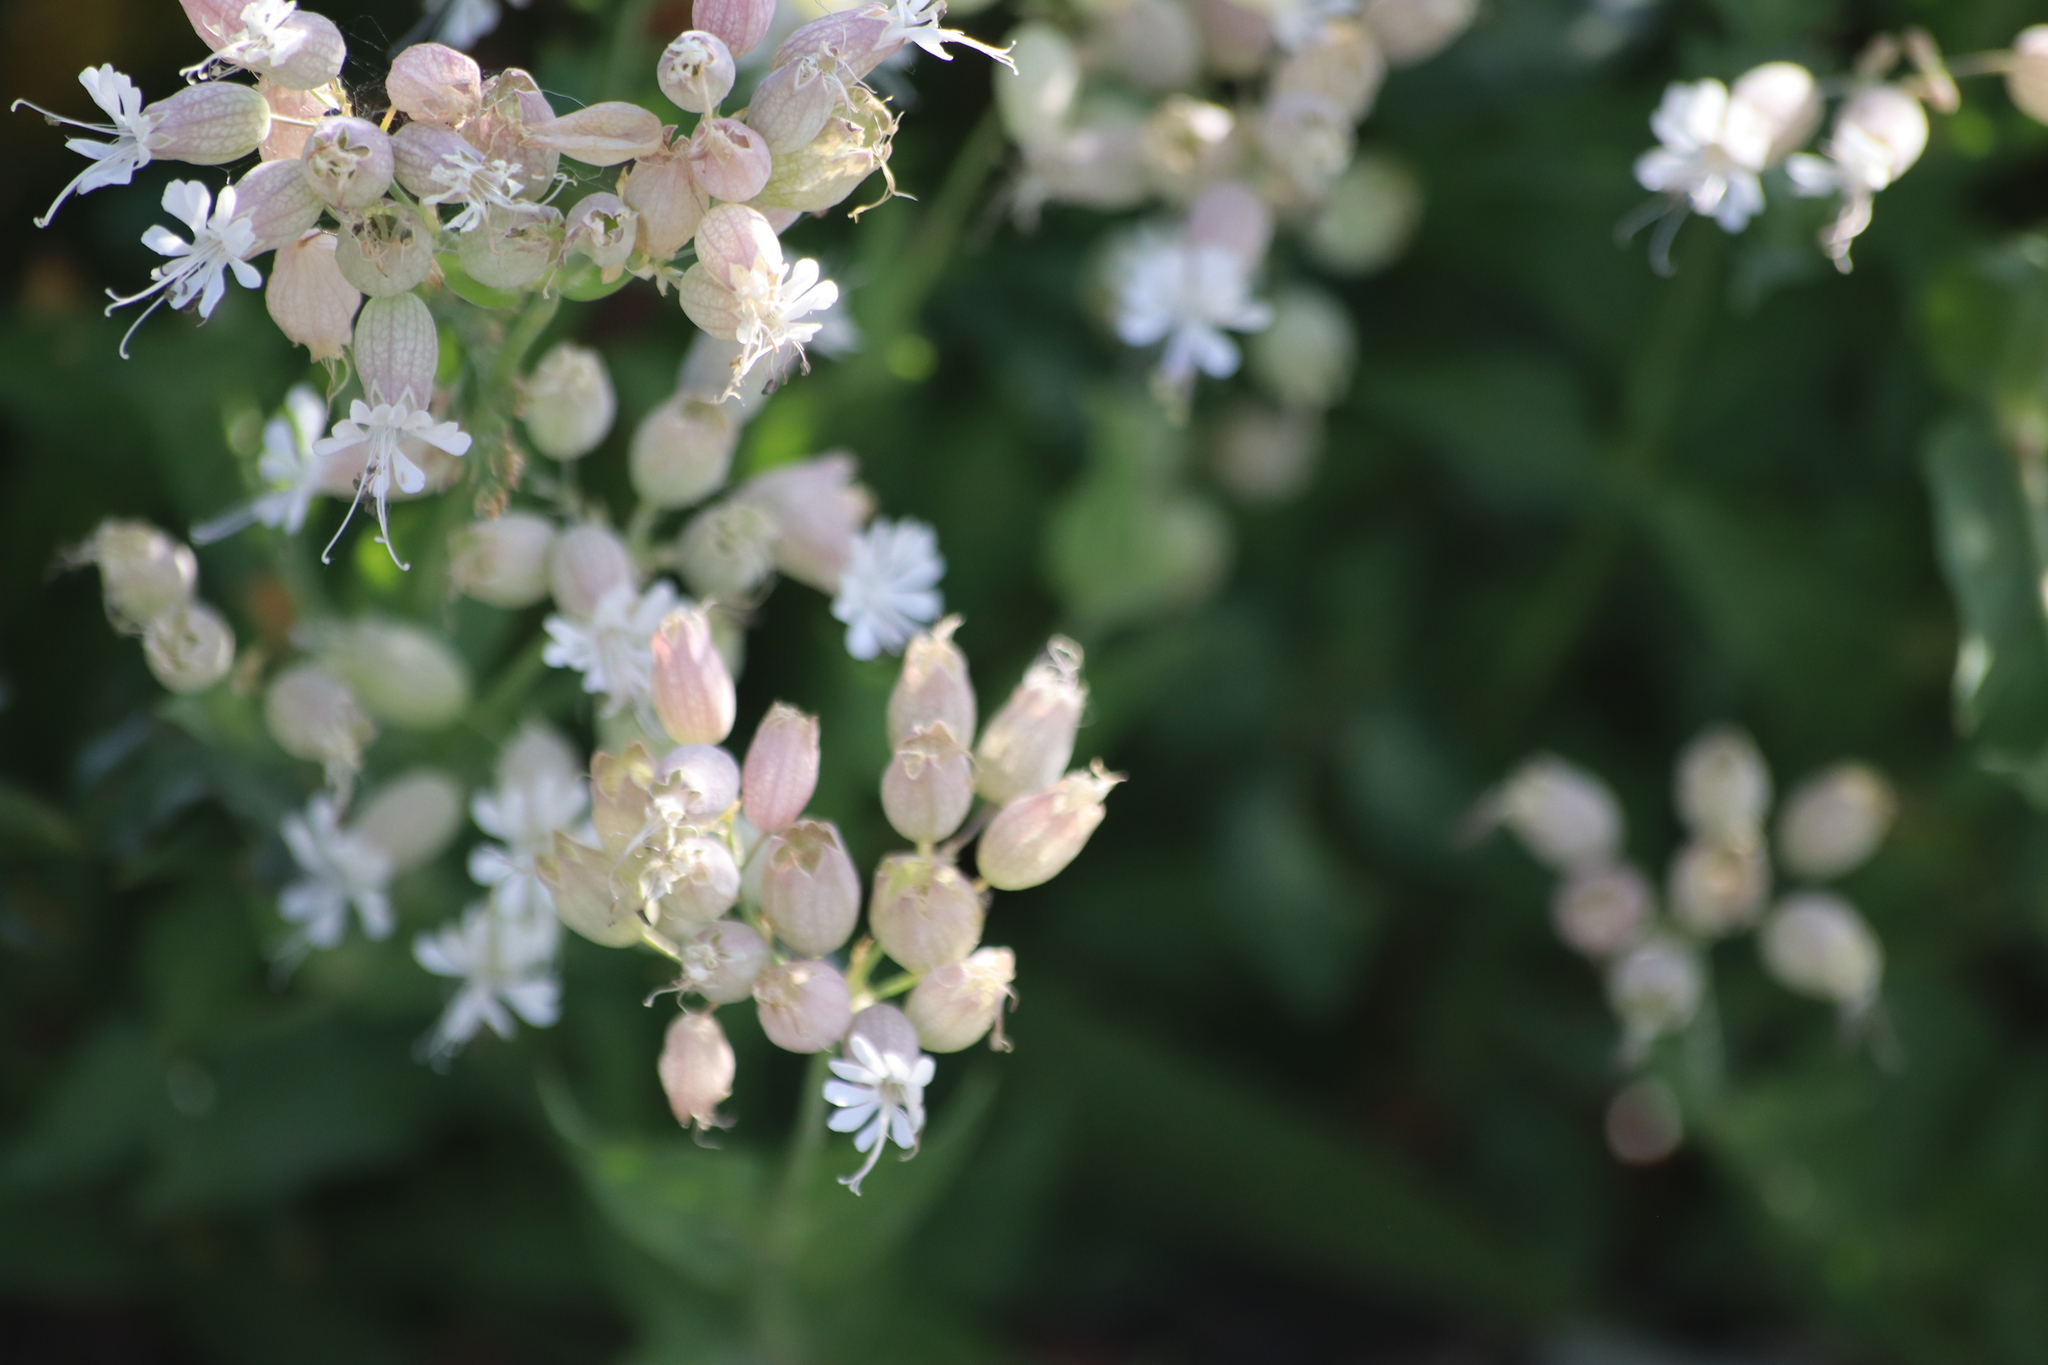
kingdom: Plantae
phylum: Tracheophyta
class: Magnoliopsida
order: Caryophyllales
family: Caryophyllaceae
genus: Silene
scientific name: Silene vulgaris
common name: Bladder campion
